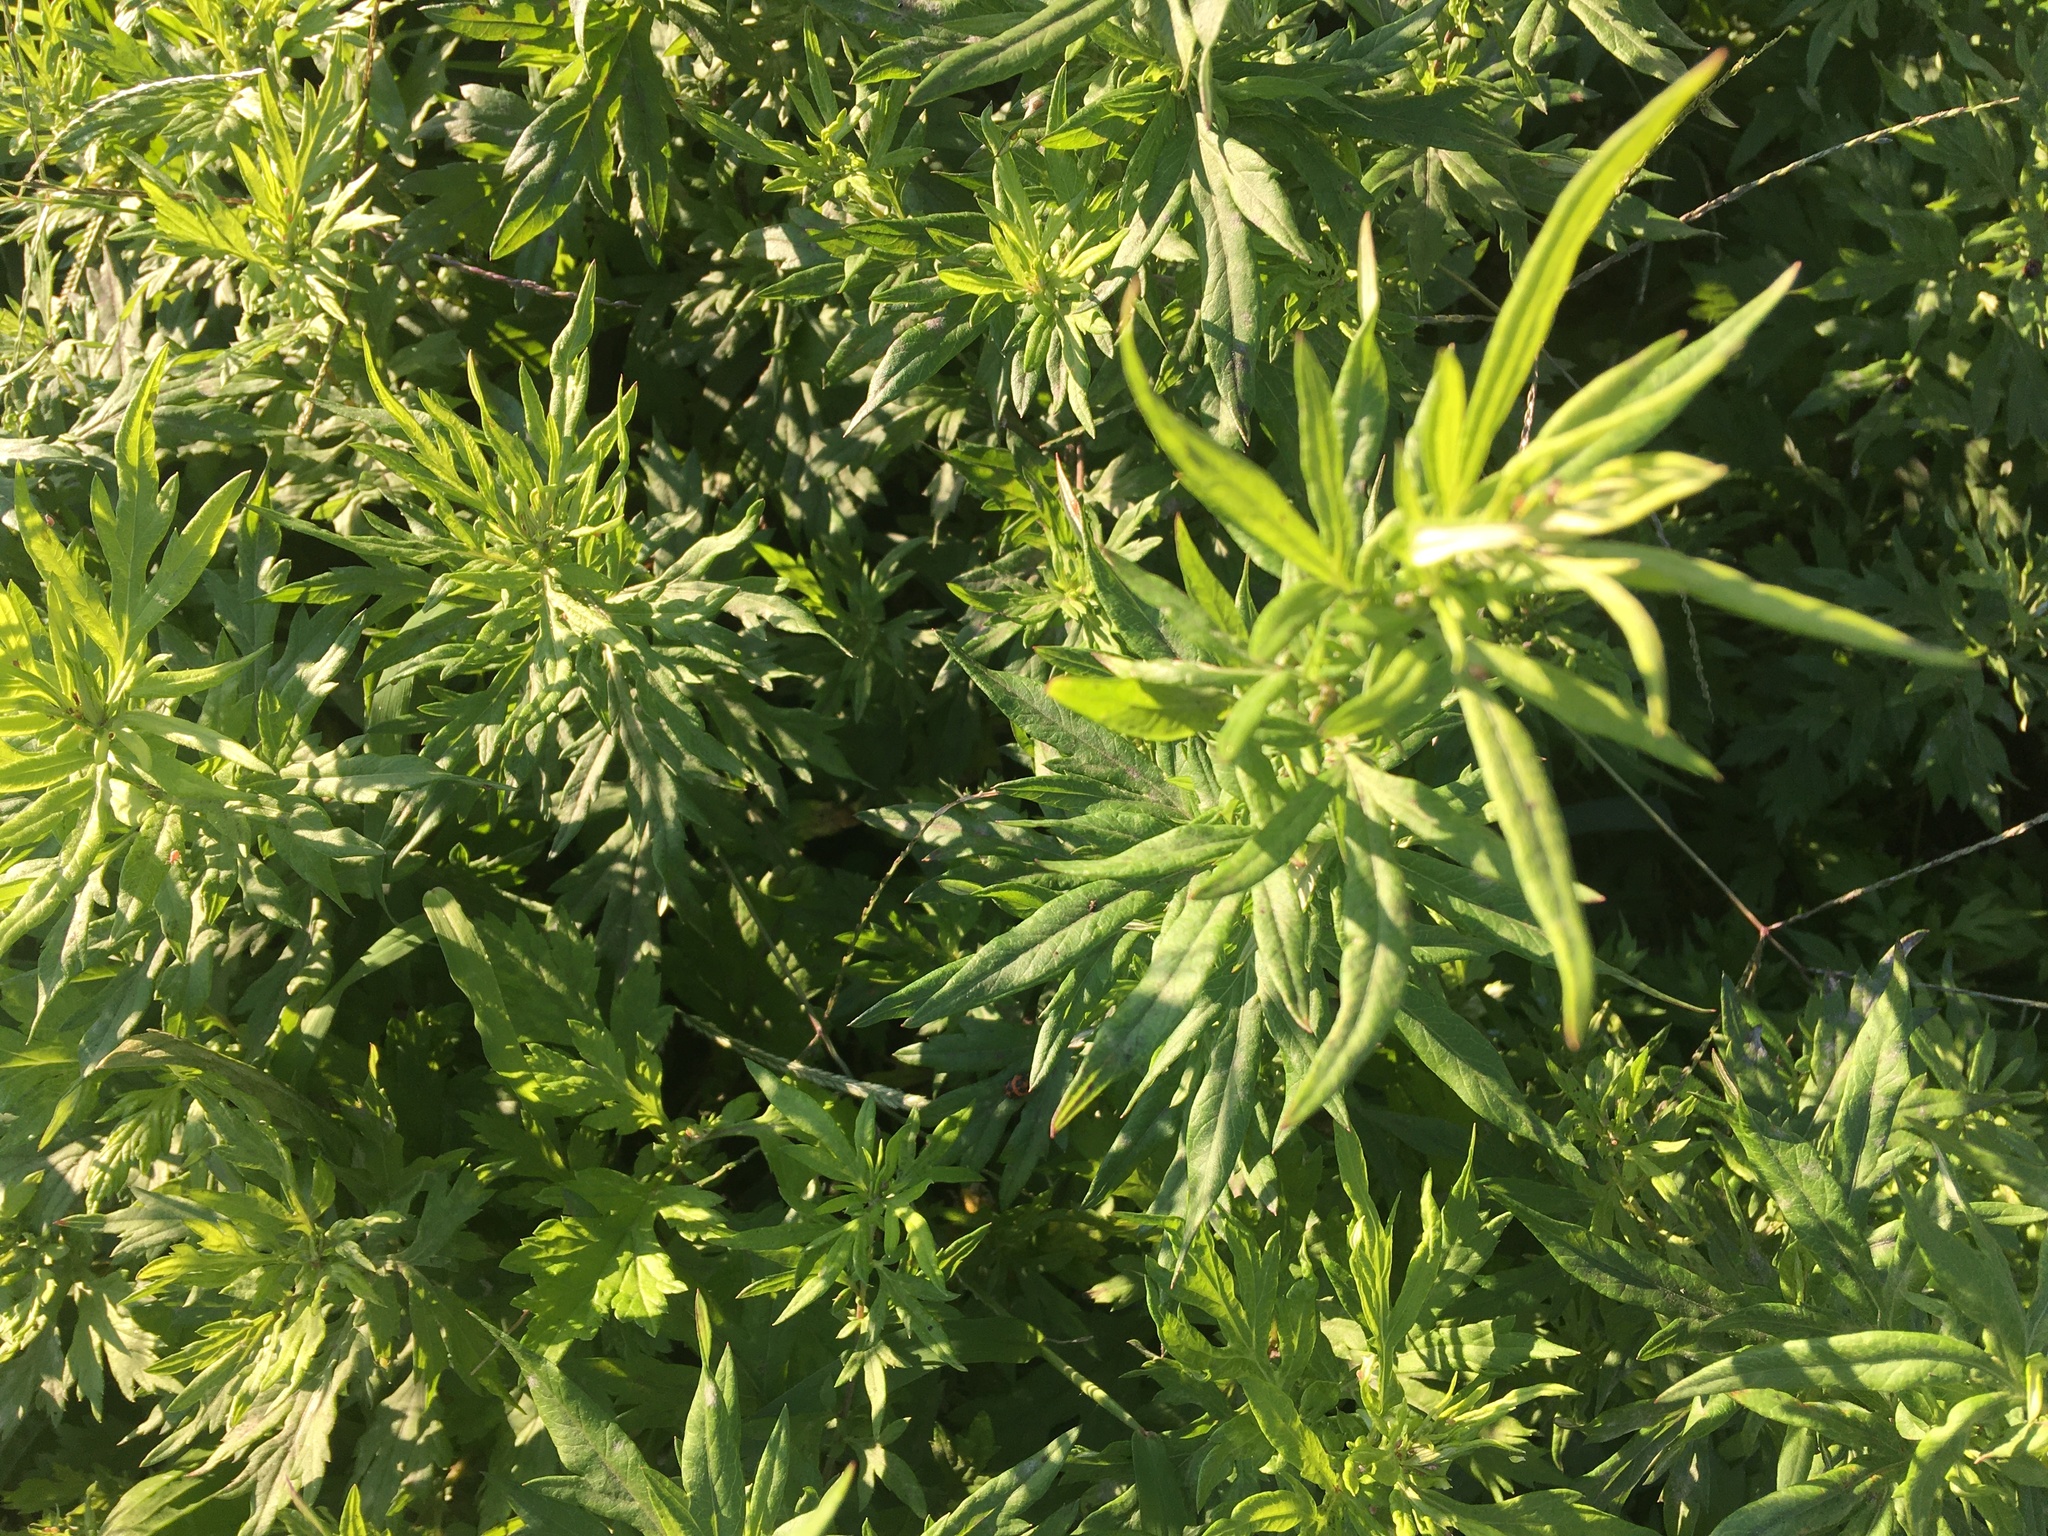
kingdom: Plantae
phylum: Tracheophyta
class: Magnoliopsida
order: Asterales
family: Asteraceae
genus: Artemisia
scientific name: Artemisia vulgaris
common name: Mugwort
